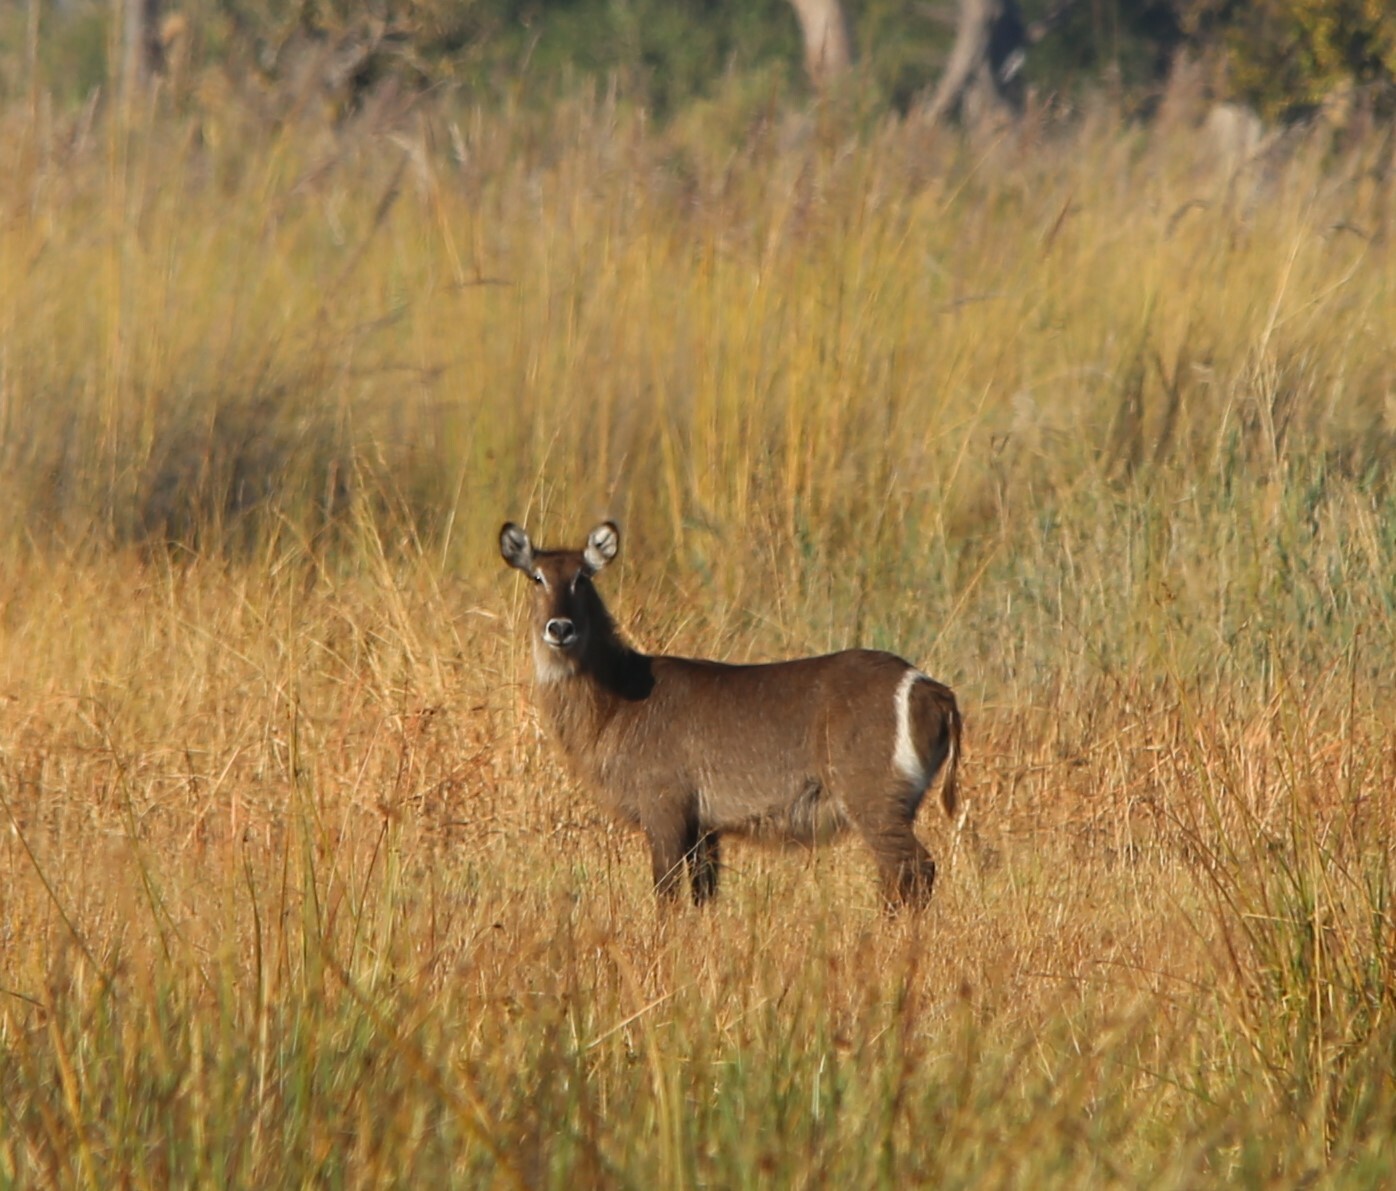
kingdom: Animalia
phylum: Chordata
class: Mammalia
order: Artiodactyla
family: Bovidae
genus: Kobus
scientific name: Kobus ellipsiprymnus
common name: Waterbuck
